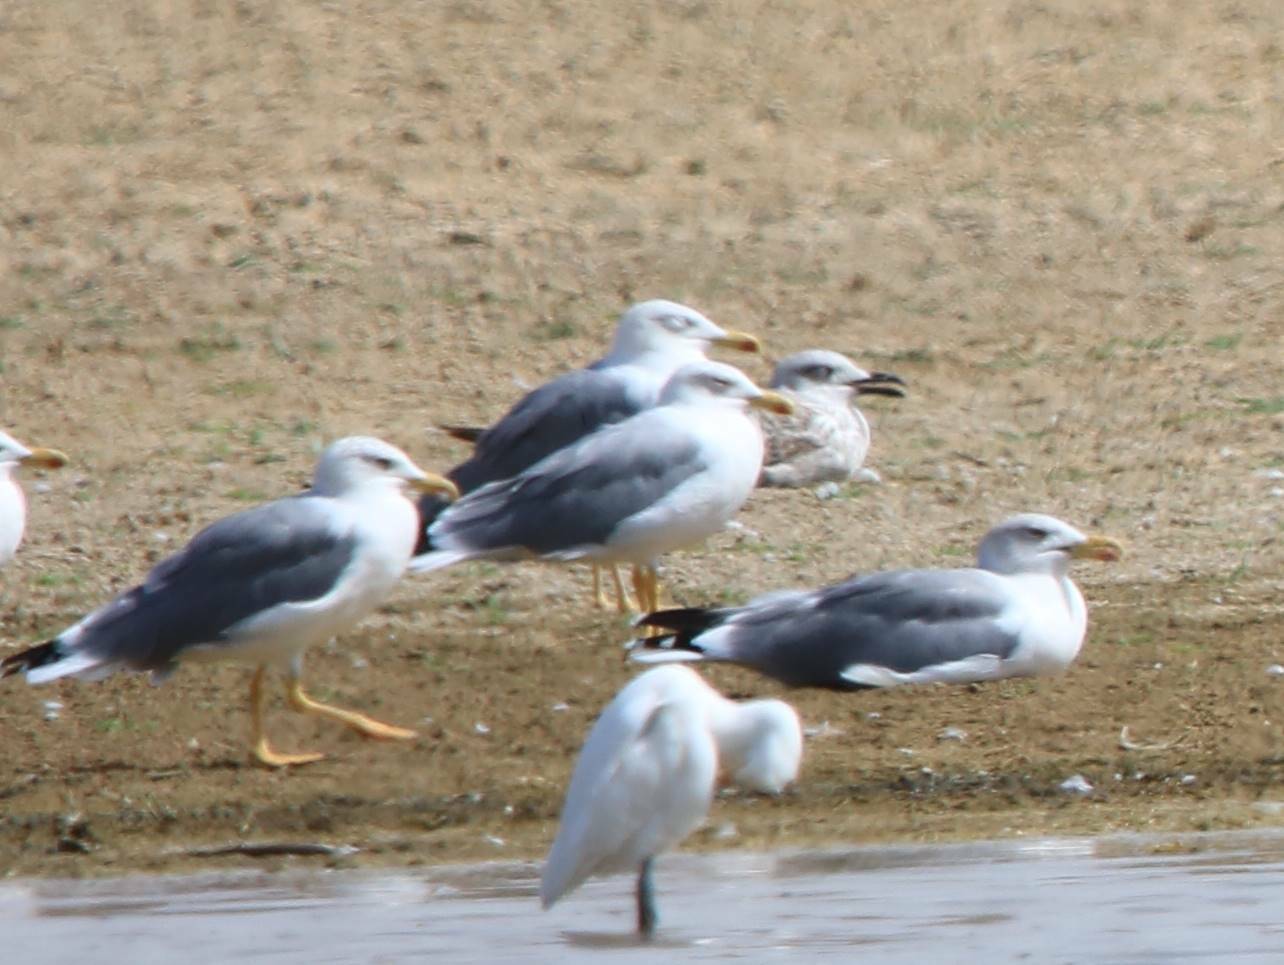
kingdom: Animalia
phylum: Chordata
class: Aves
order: Charadriiformes
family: Laridae
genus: Larus
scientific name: Larus michahellis
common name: Yellow-legged gull
